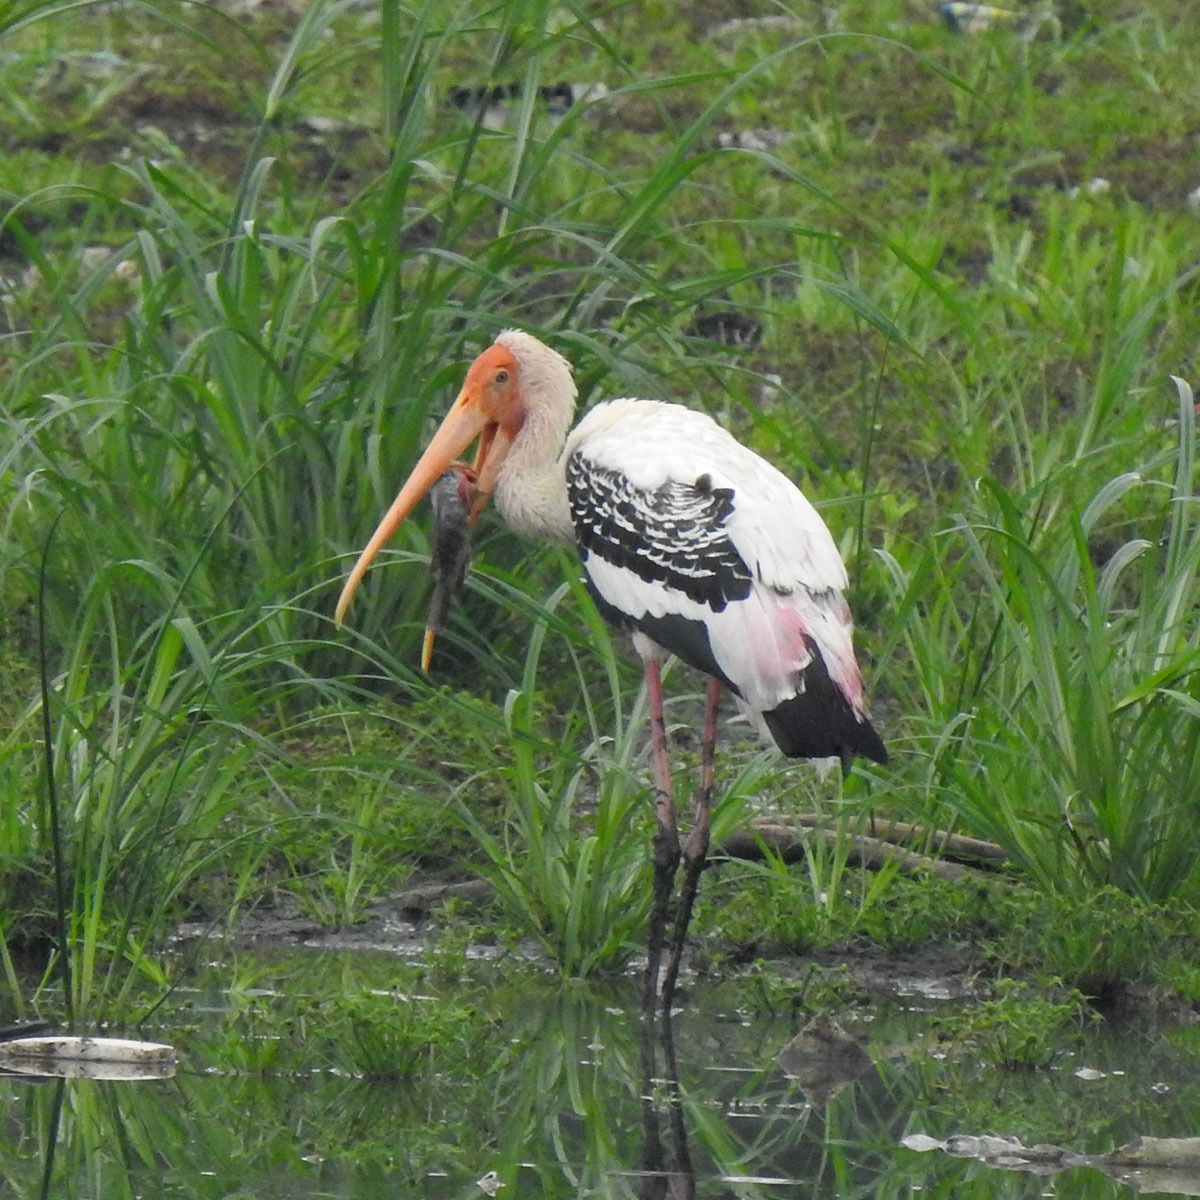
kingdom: Animalia
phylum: Chordata
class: Aves
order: Ciconiiformes
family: Ciconiidae
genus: Mycteria
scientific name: Mycteria leucocephala
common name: Painted stork
